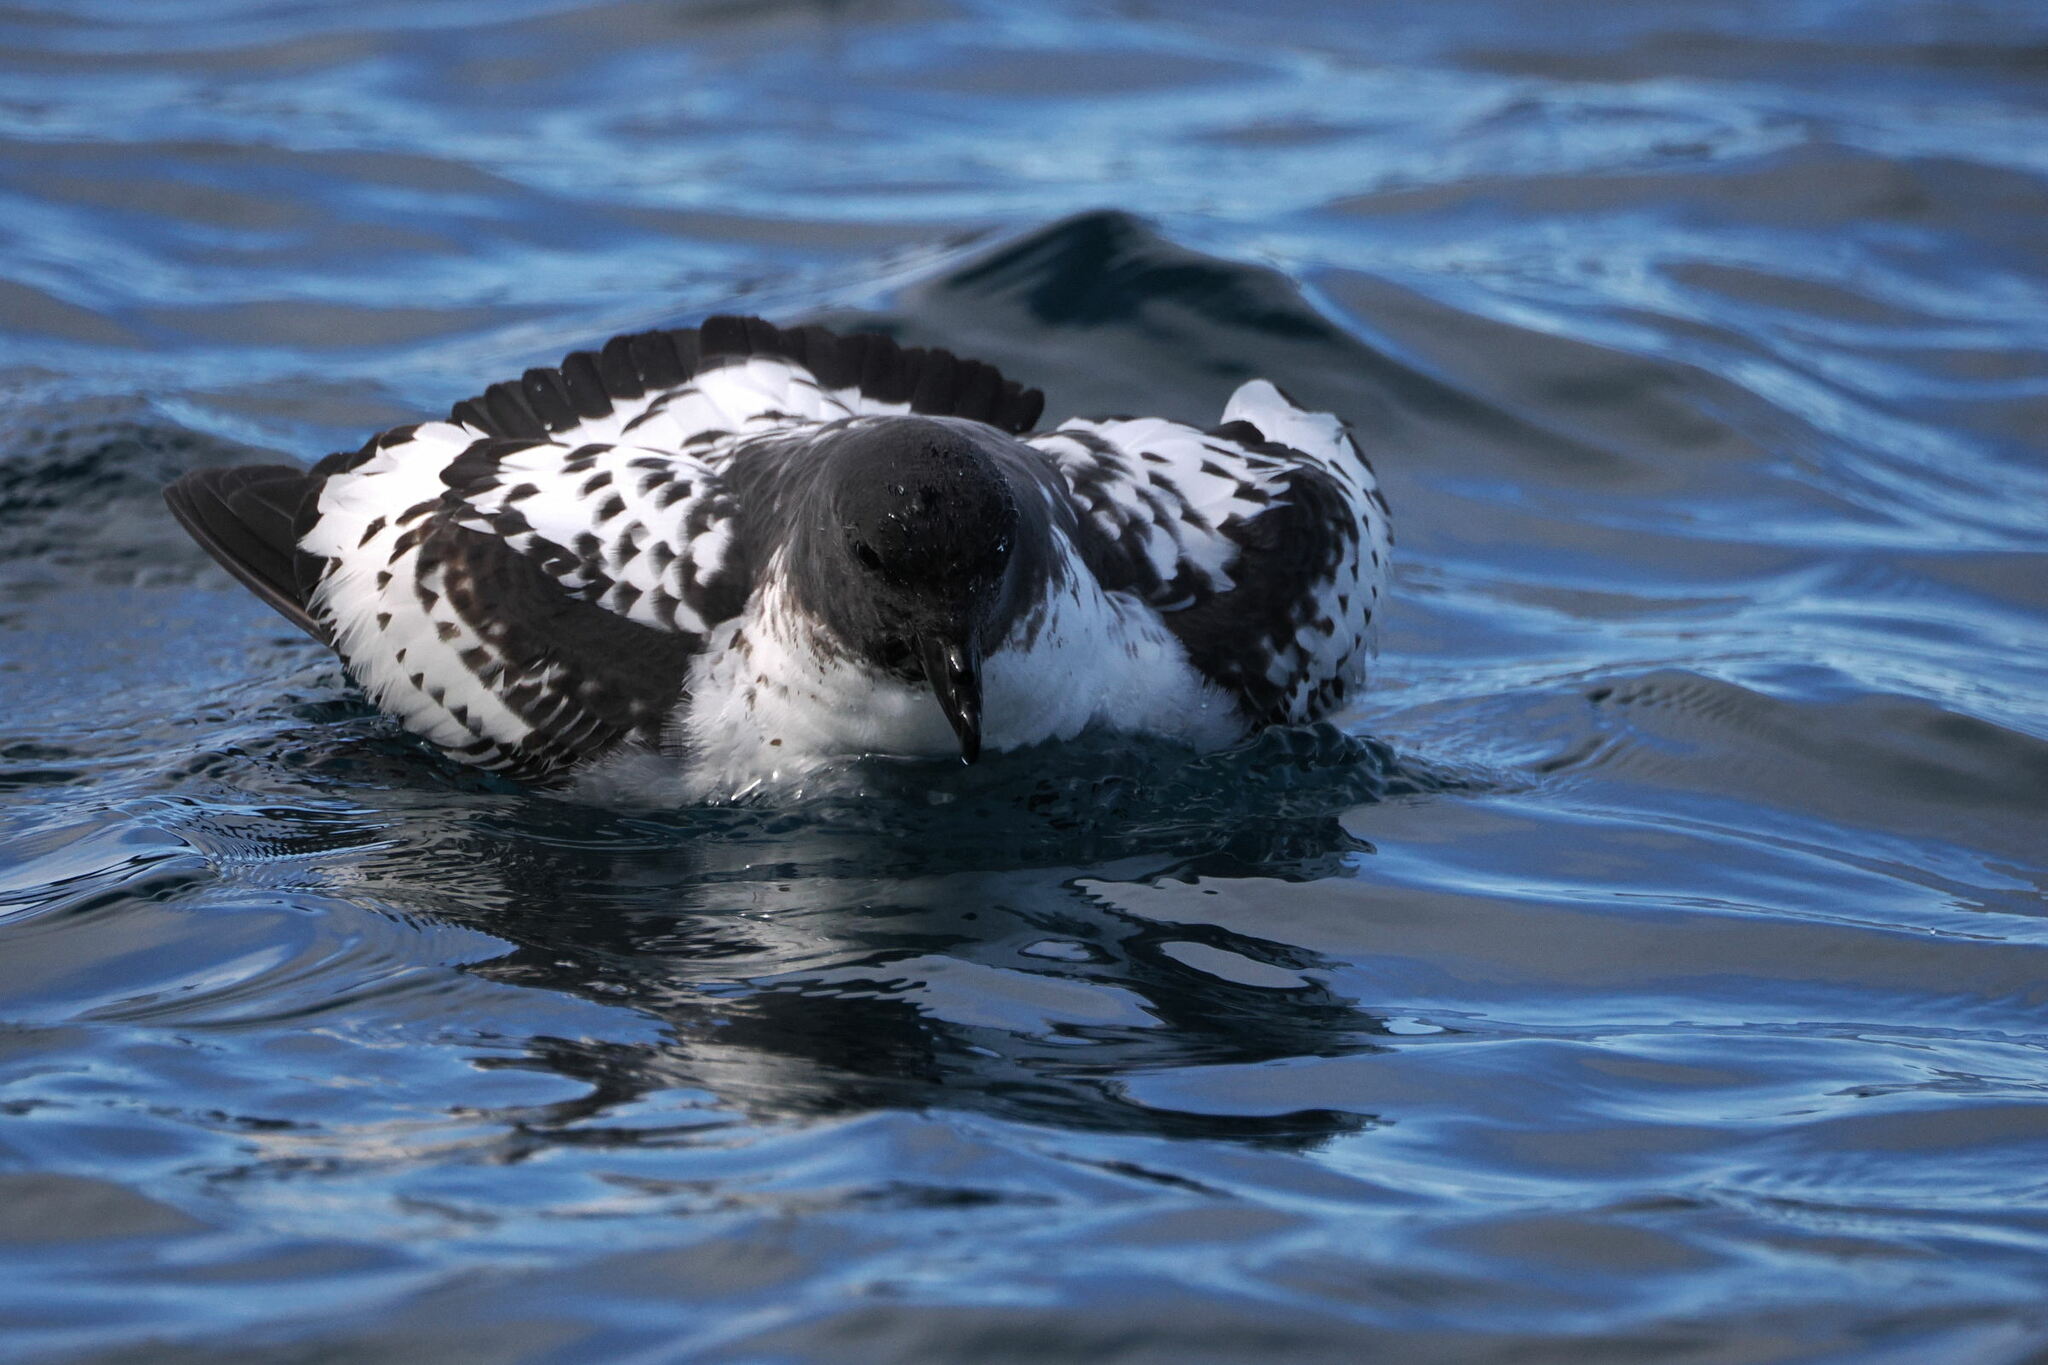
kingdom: Animalia
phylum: Chordata
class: Aves
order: Procellariiformes
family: Procellariidae
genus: Daption
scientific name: Daption capense
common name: Cape petrel
